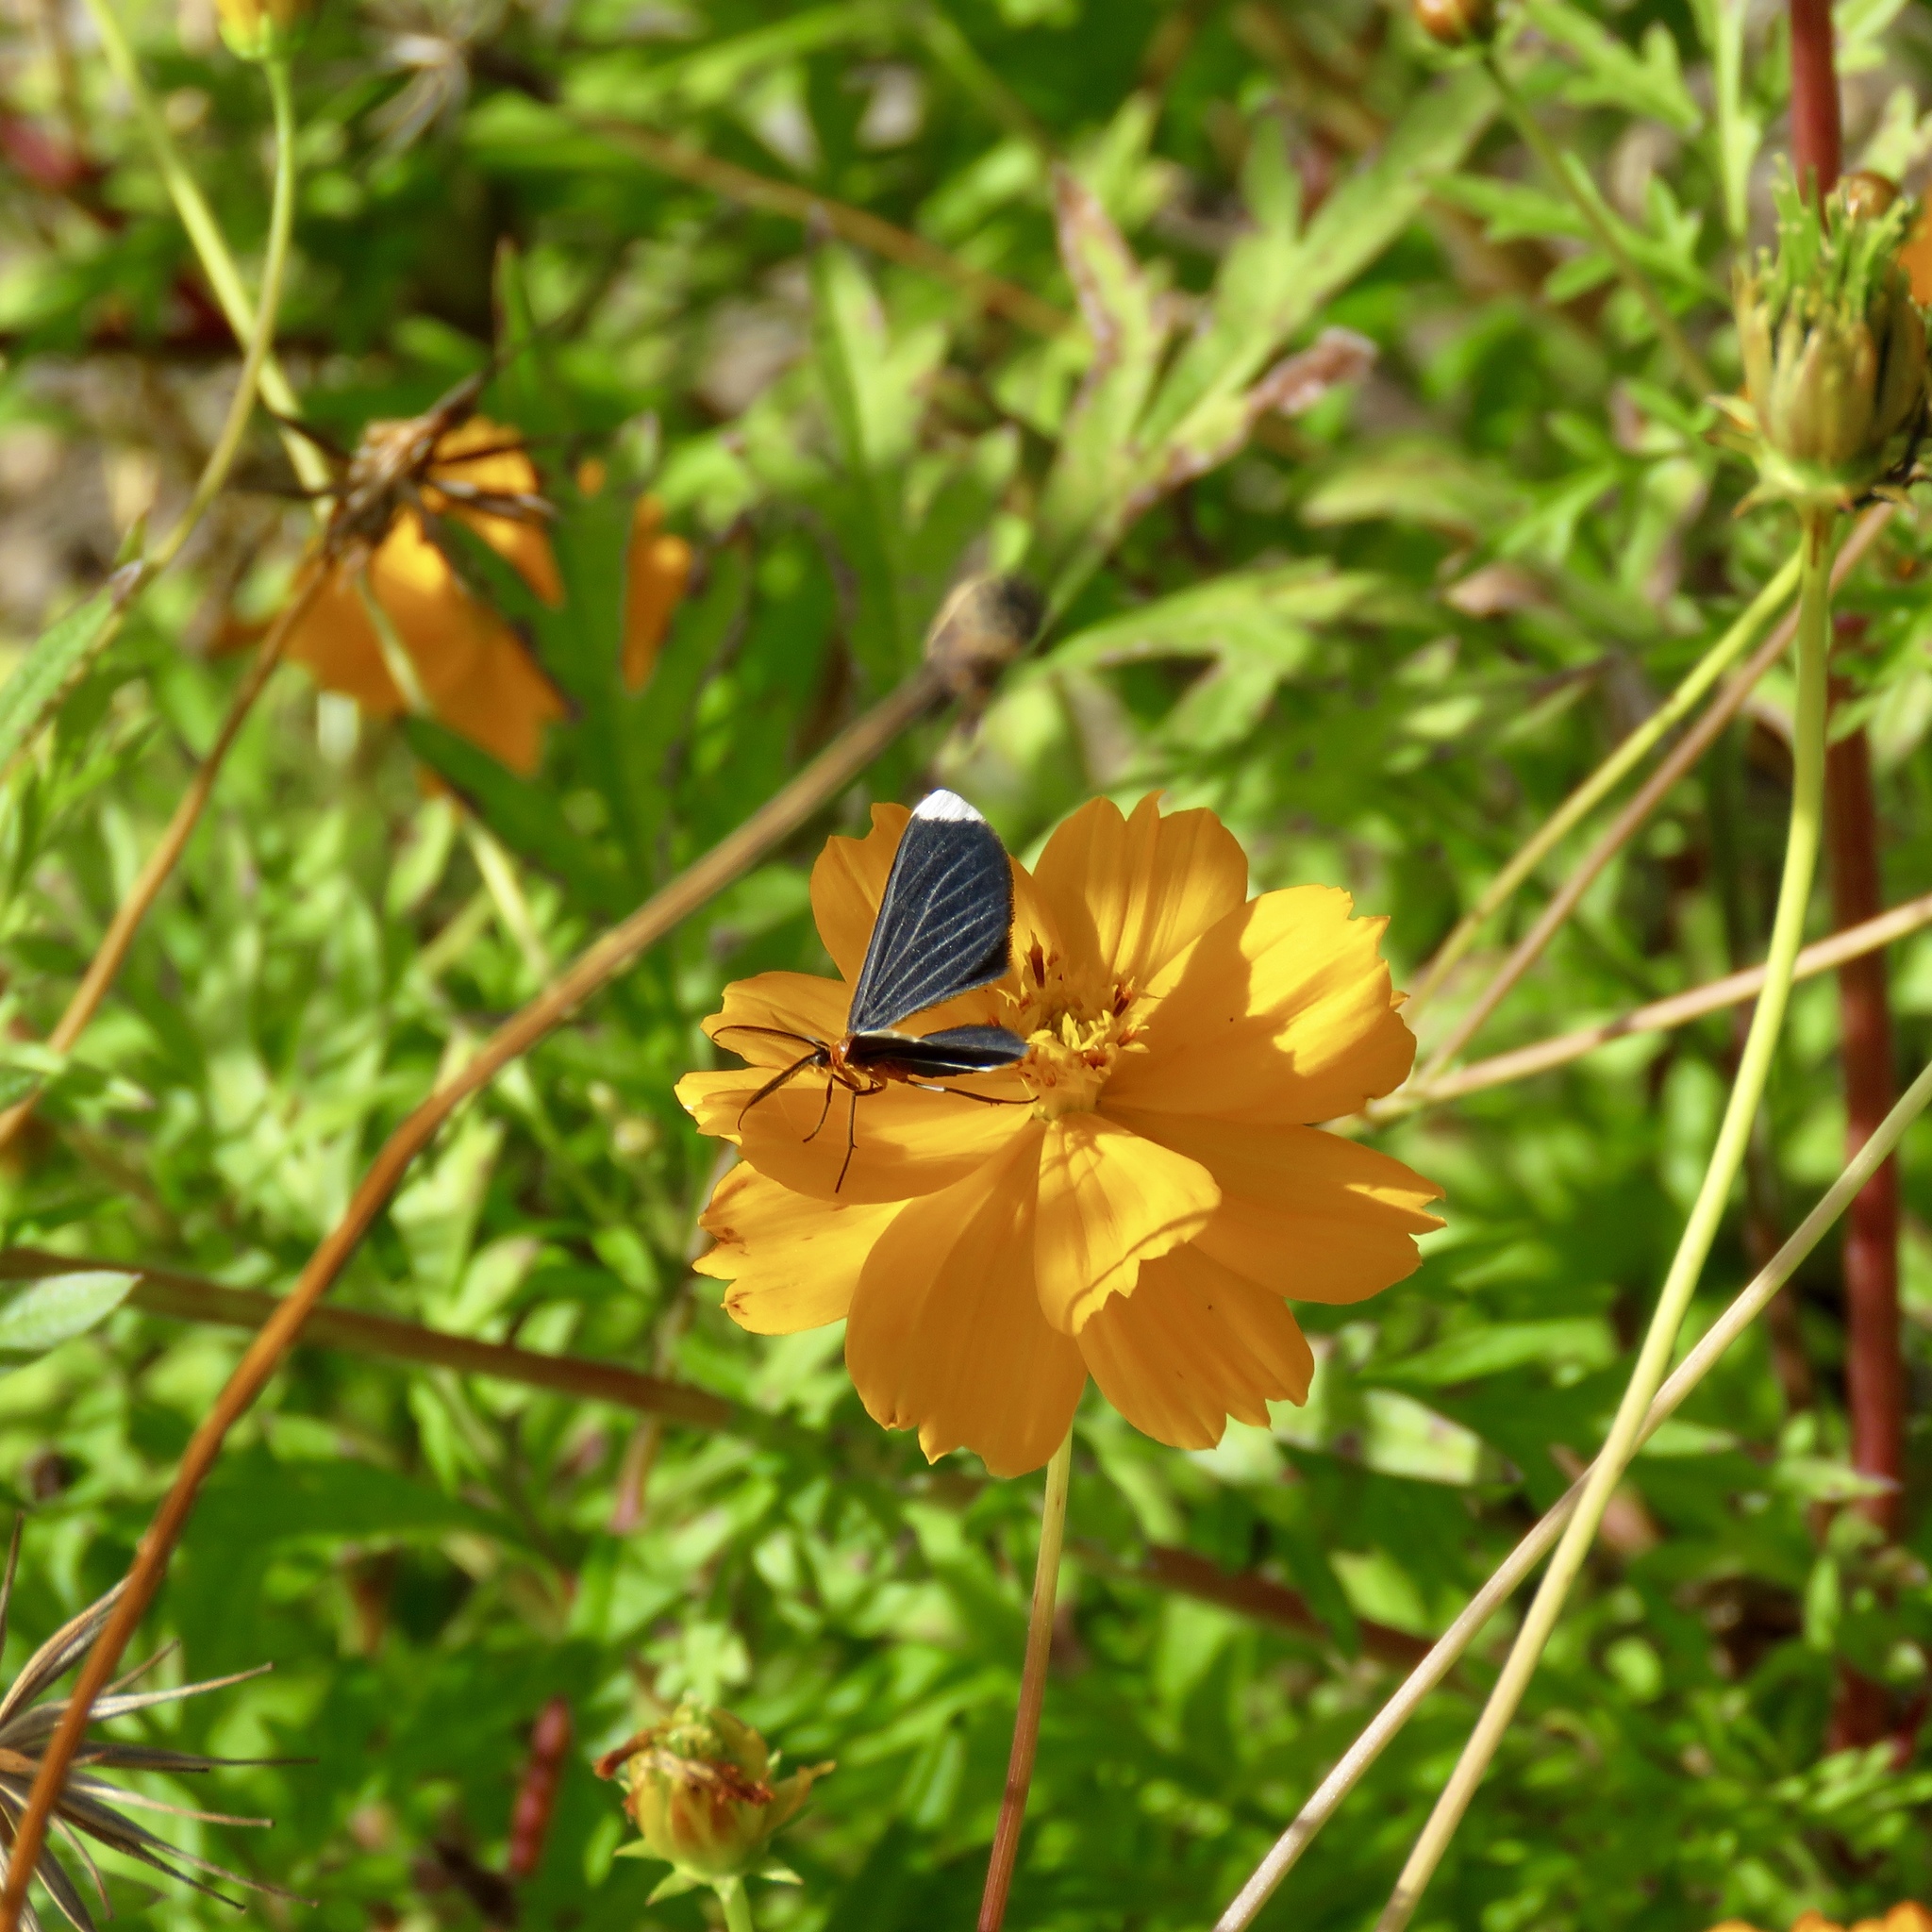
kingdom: Animalia
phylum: Arthropoda
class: Insecta
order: Lepidoptera
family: Geometridae
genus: Melanchroia
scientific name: Melanchroia chephise
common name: White-tipped black
